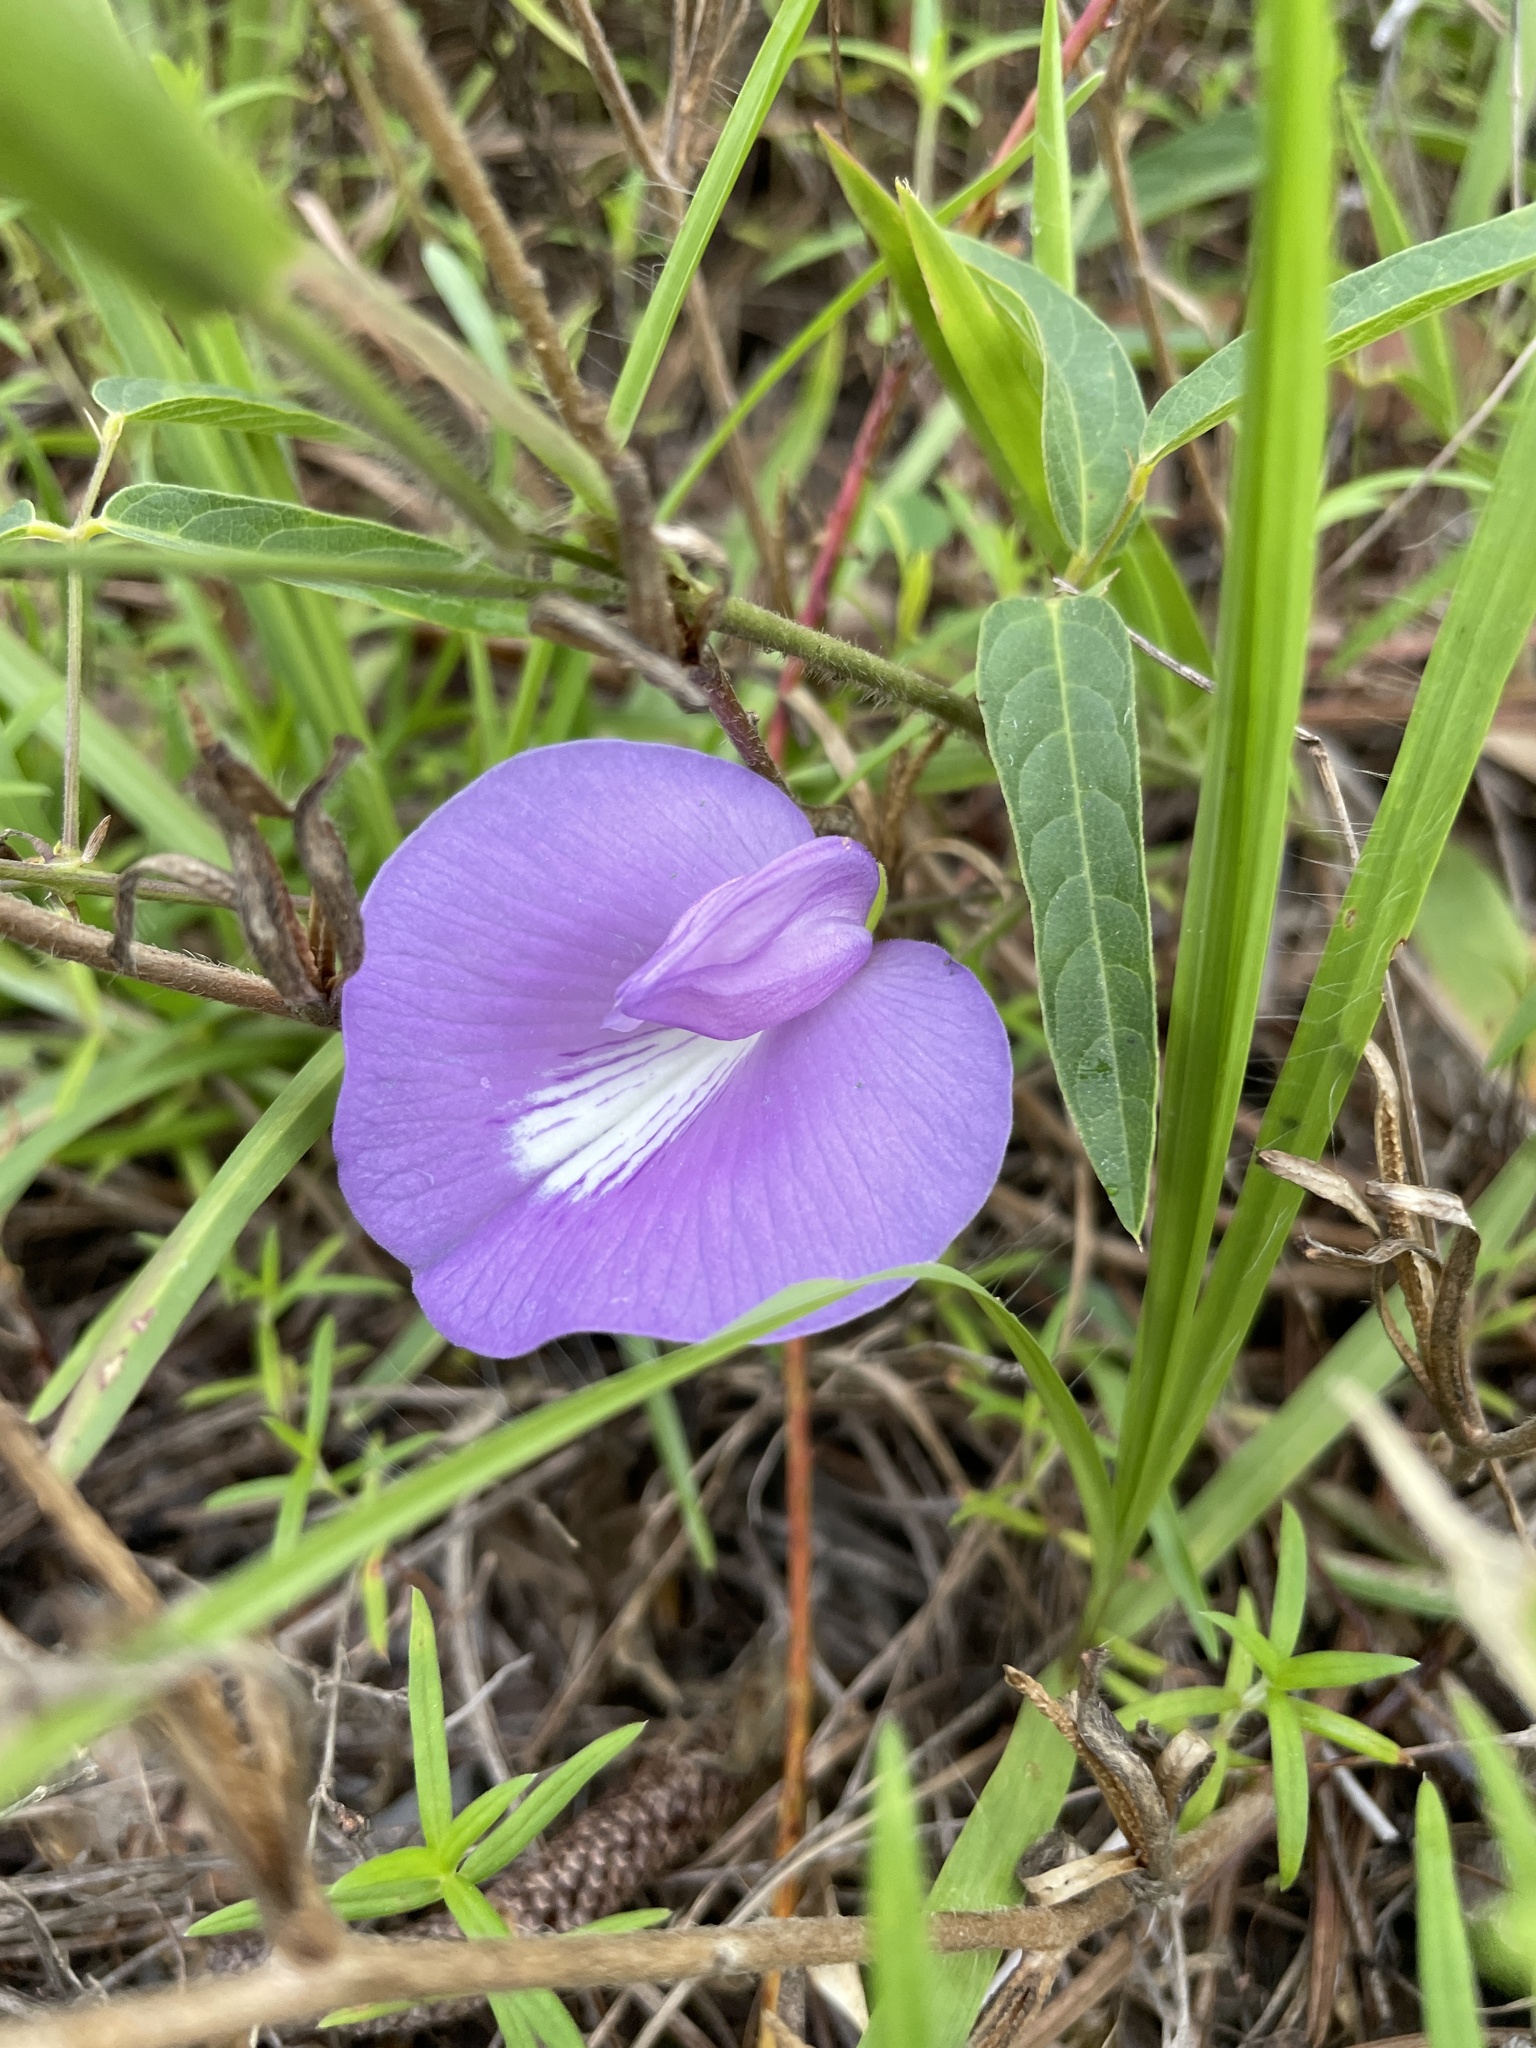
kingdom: Plantae
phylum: Tracheophyta
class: Magnoliopsida
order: Fabales
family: Fabaceae
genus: Centrosema
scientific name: Centrosema virginianum
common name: Butterfly-pea
